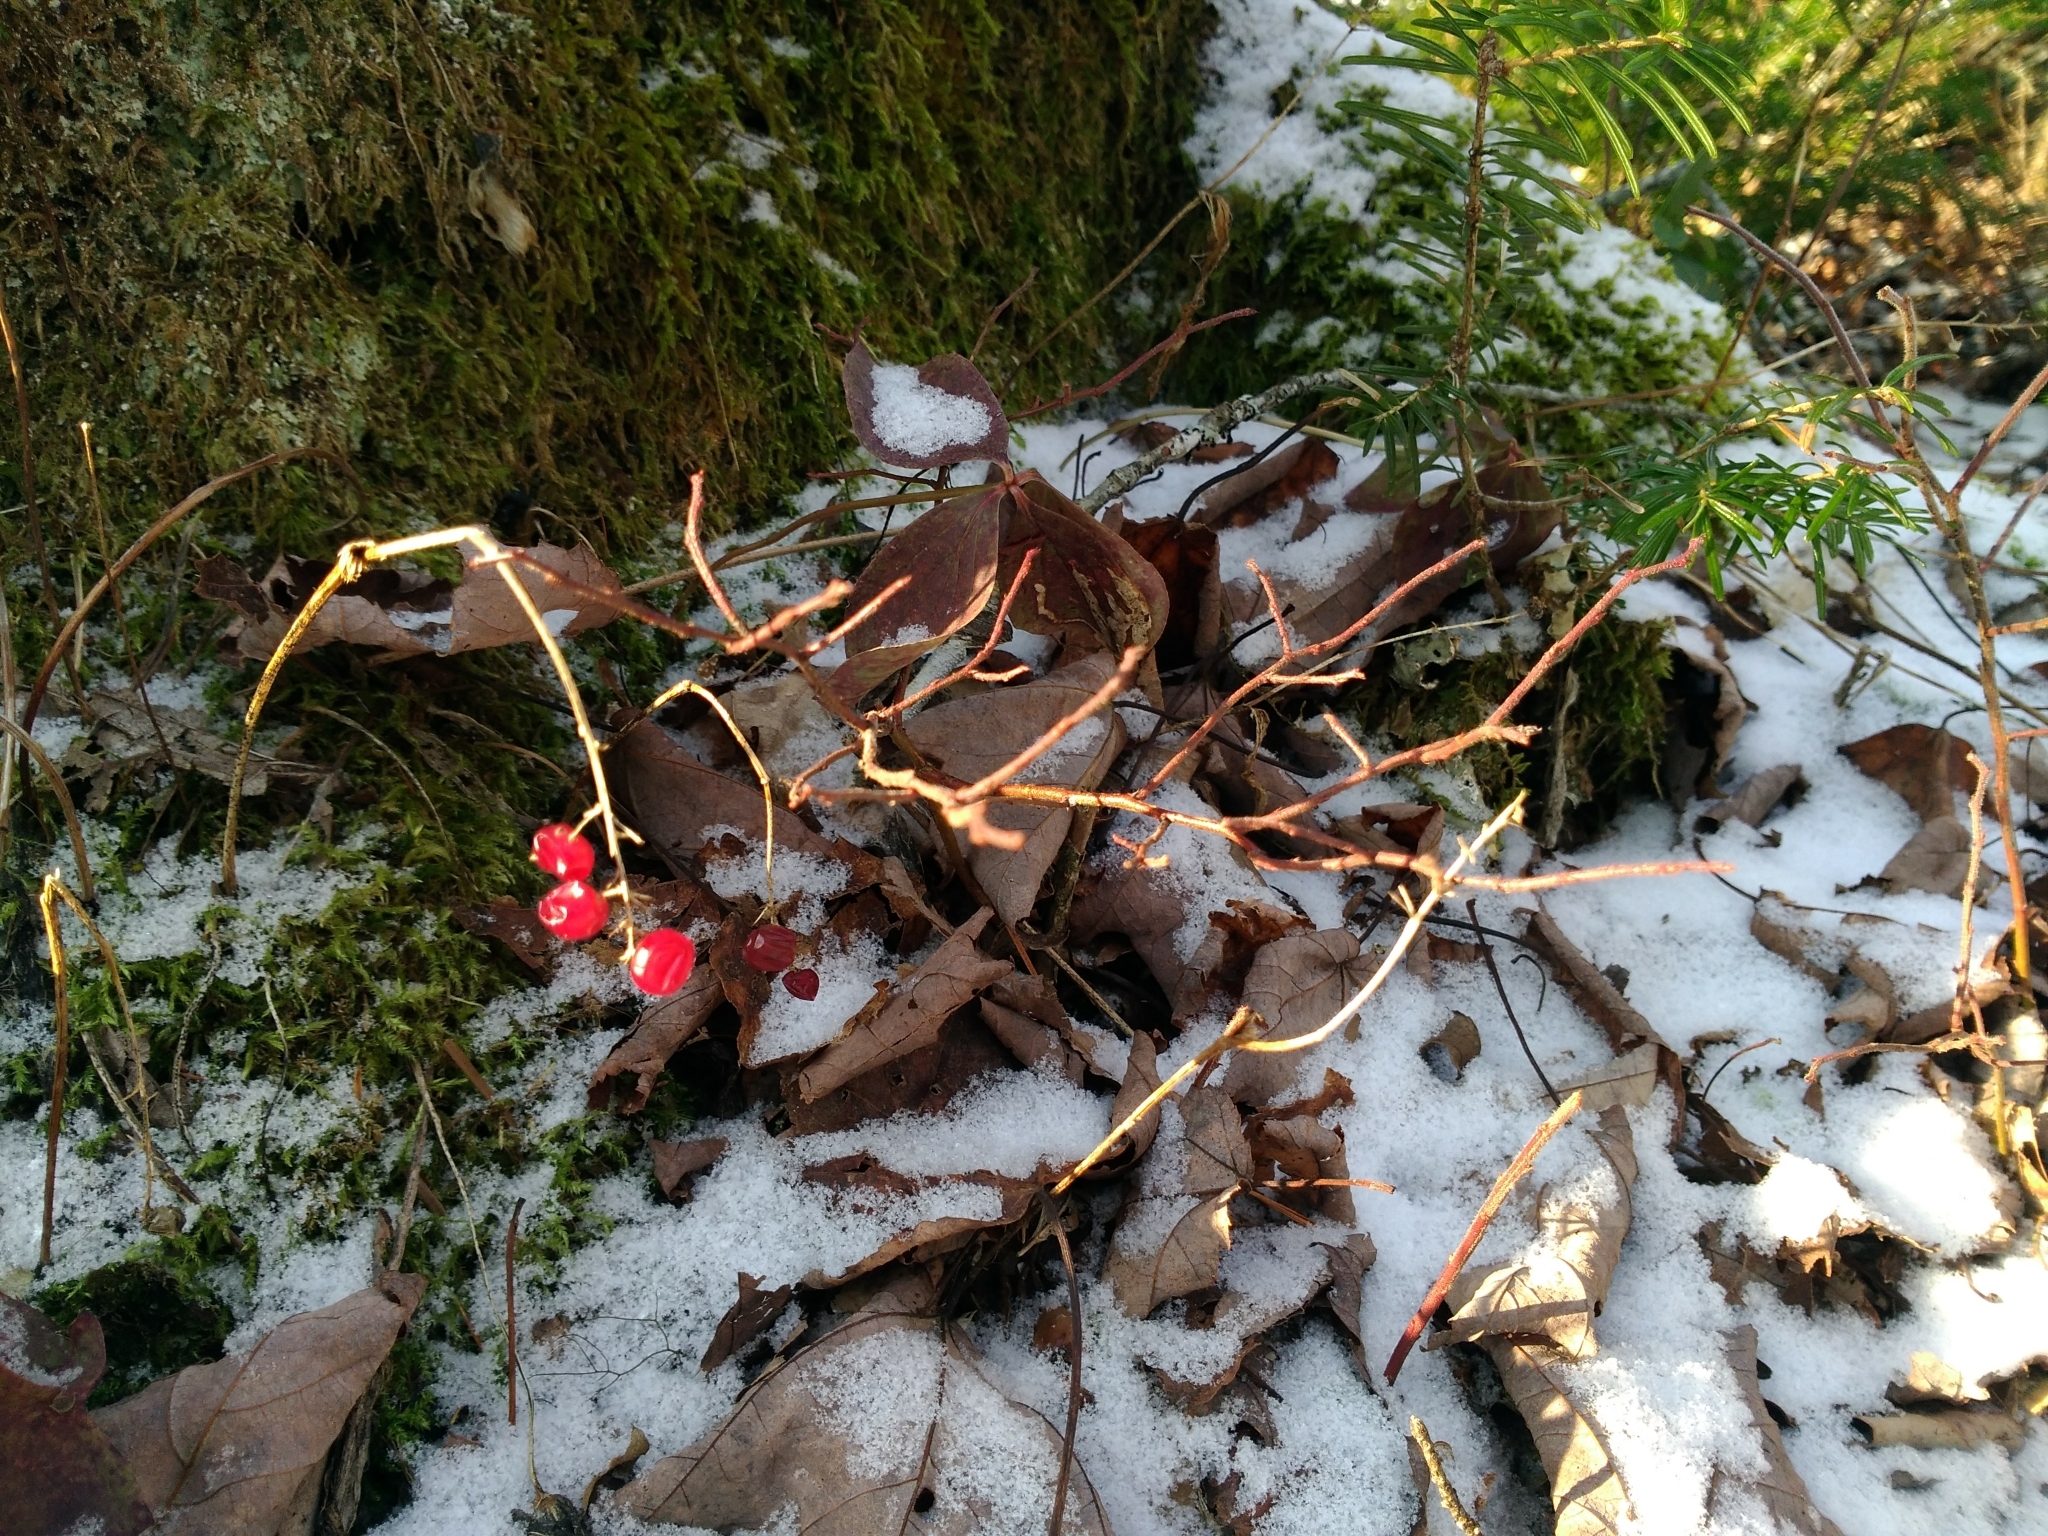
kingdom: Plantae
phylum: Tracheophyta
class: Pinopsida
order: Pinales
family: Pinaceae
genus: Abies
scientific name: Abies balsamea
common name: Balsam fir
